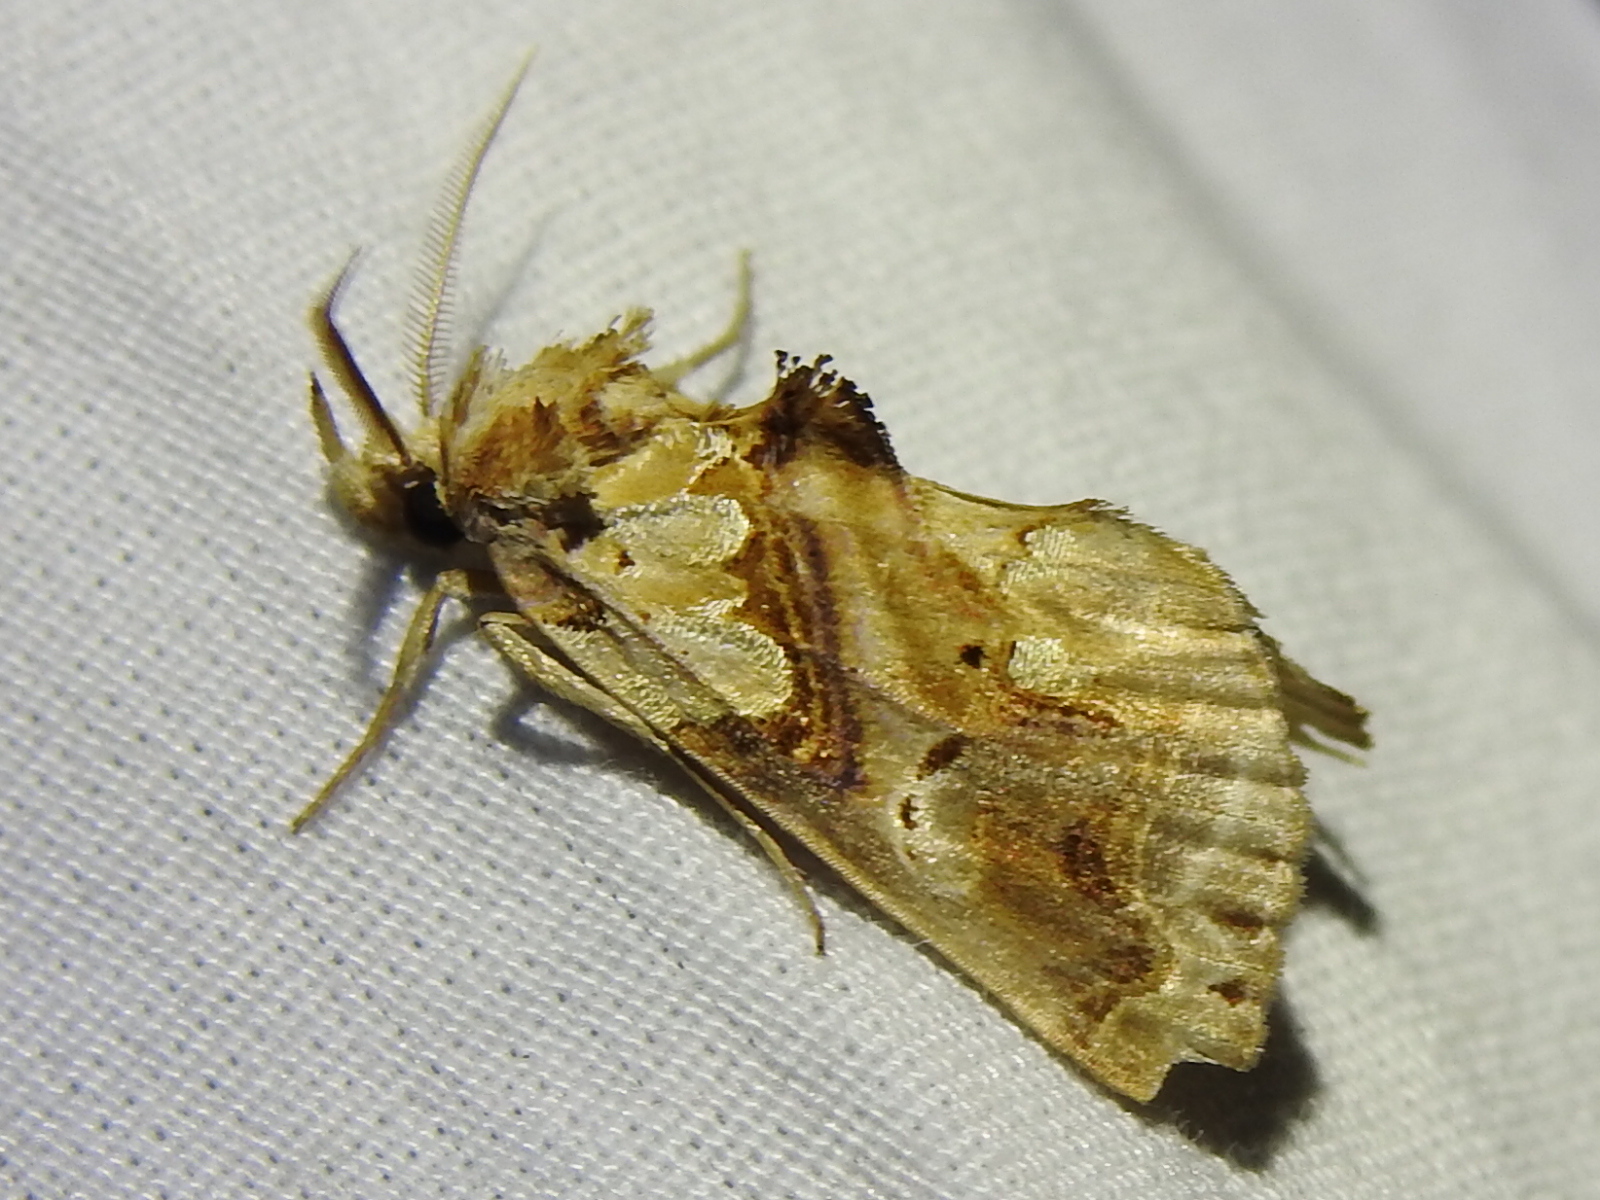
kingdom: Animalia
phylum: Arthropoda
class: Insecta
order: Lepidoptera
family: Erebidae
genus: Plusiodonta
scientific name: Plusiodonta compressipalpis
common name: Moonseed moth
